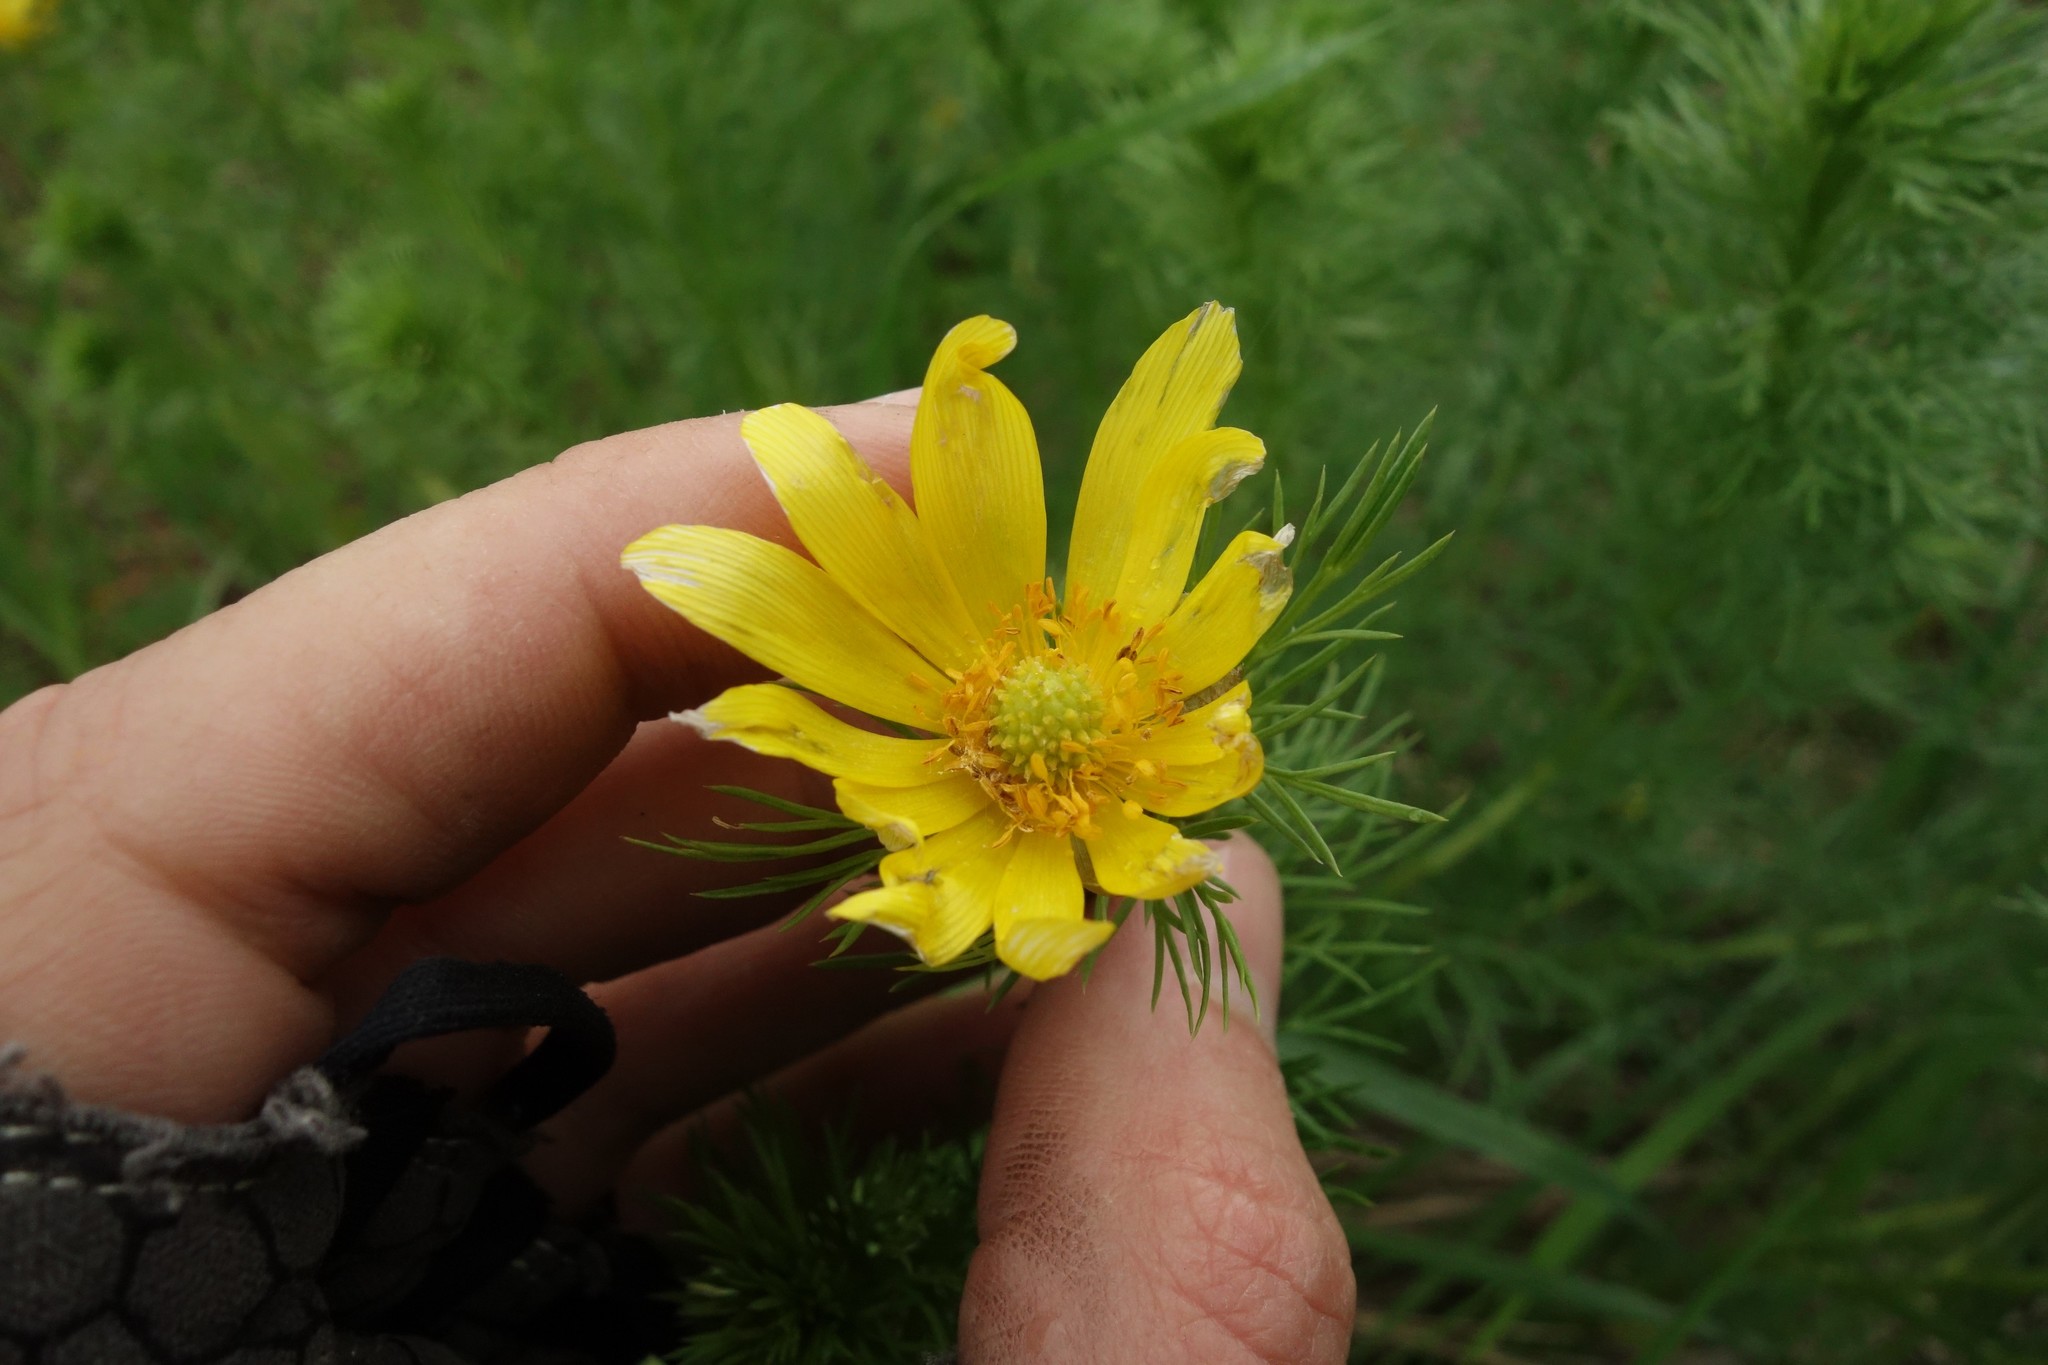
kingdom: Plantae
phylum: Tracheophyta
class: Magnoliopsida
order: Ranunculales
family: Ranunculaceae
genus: Adonis
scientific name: Adonis vernalis
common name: Yellow pheasants-eye
